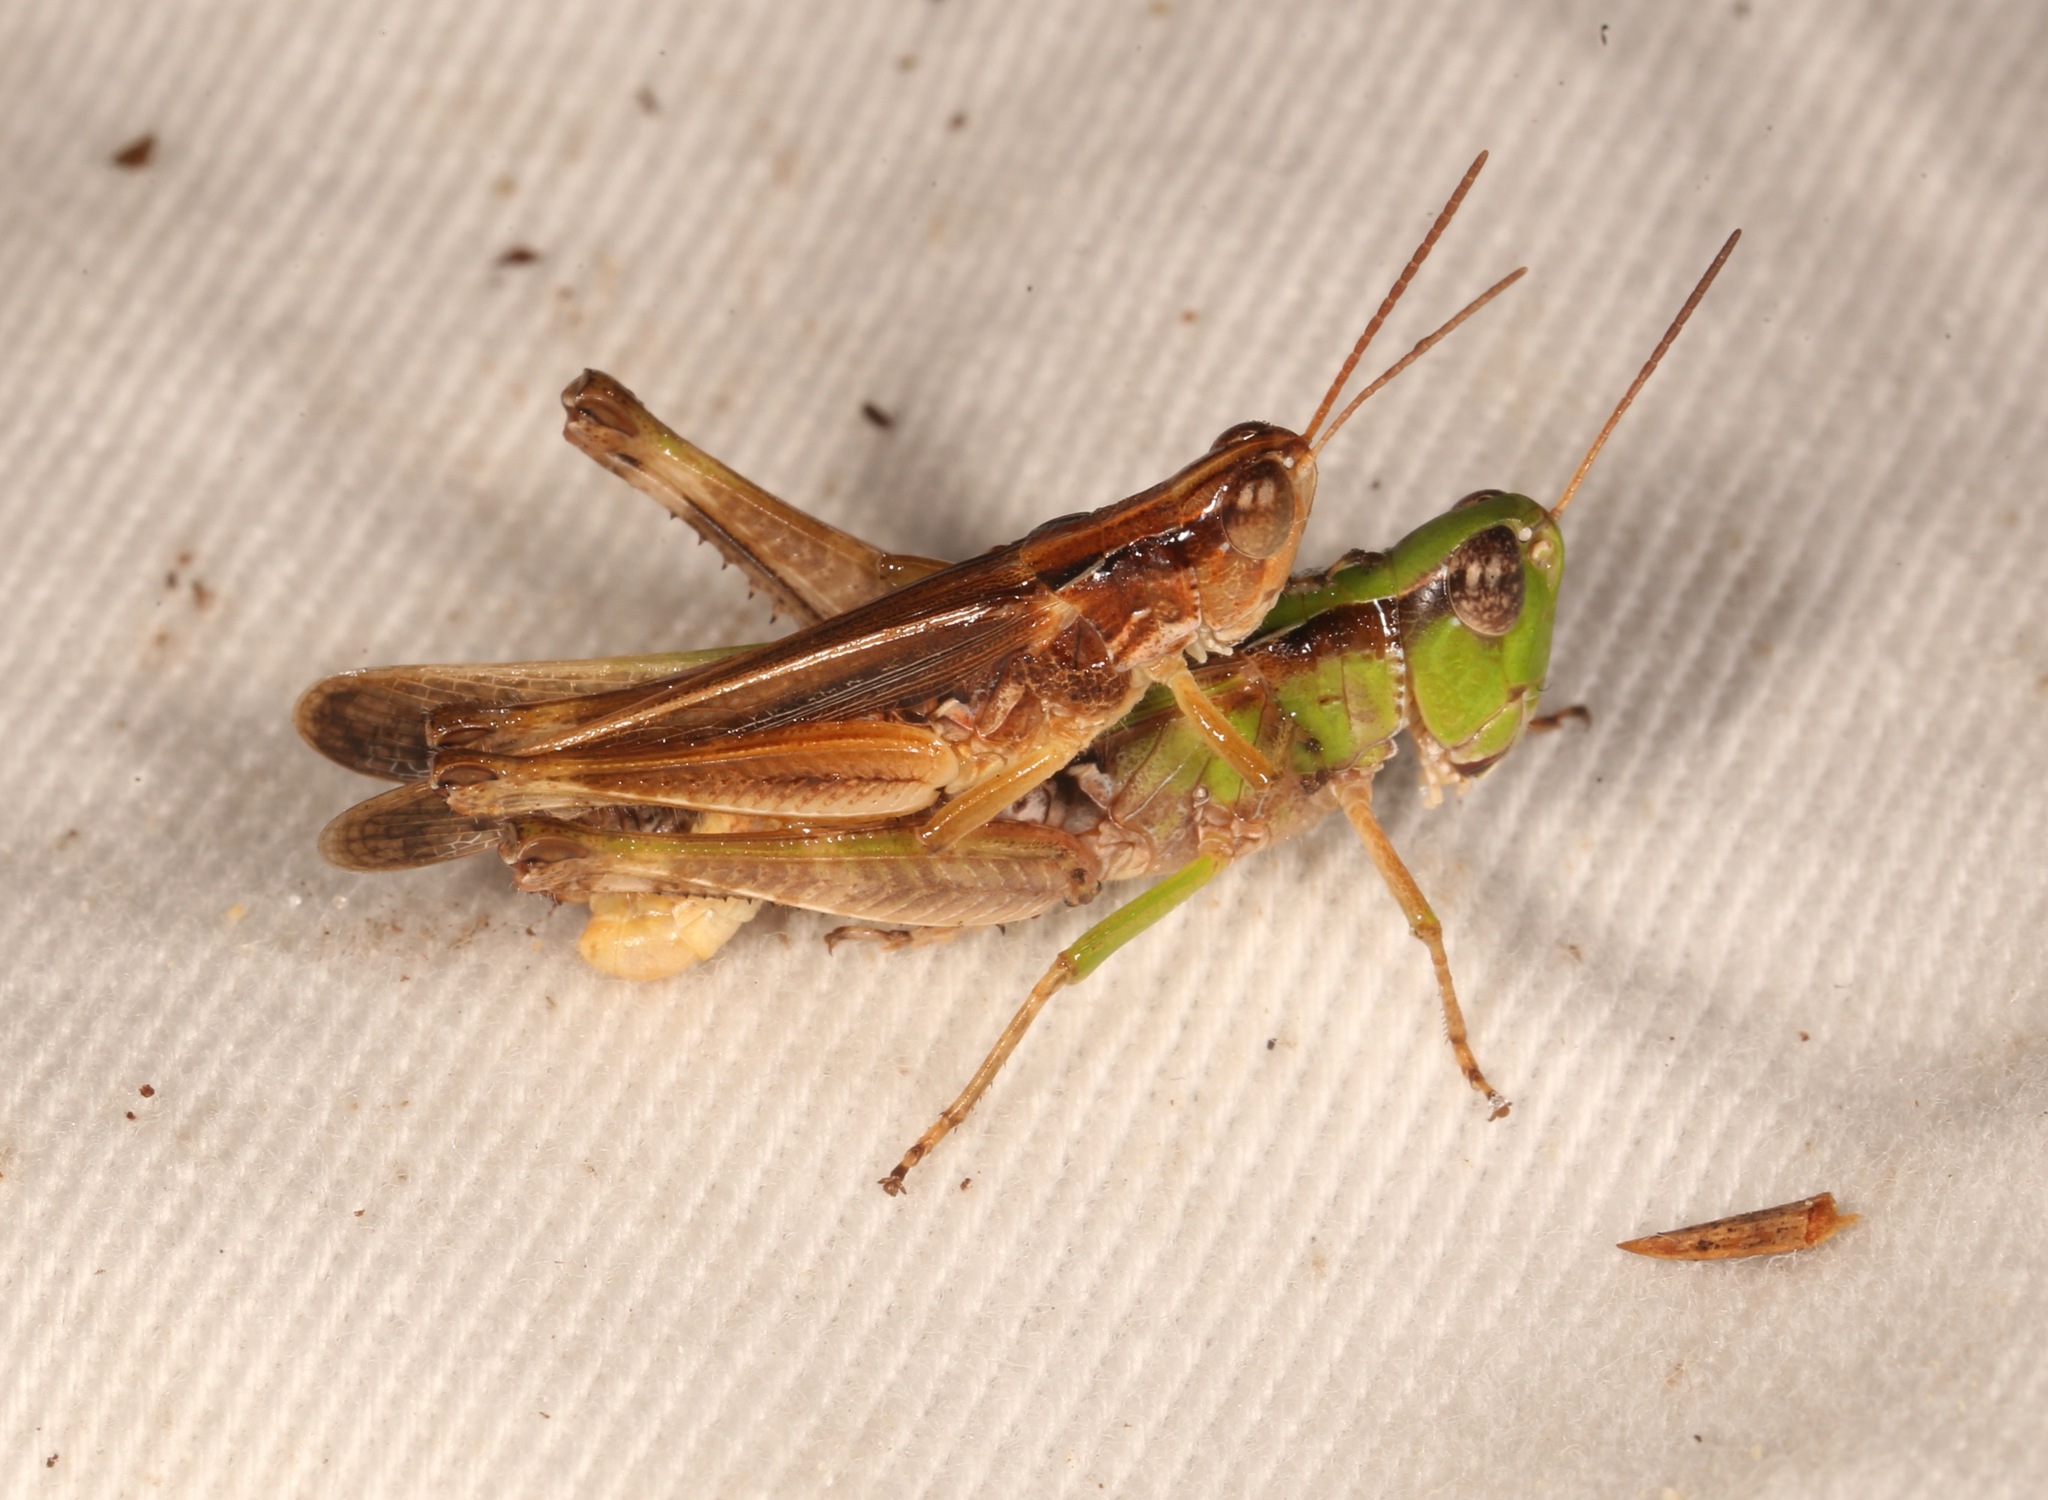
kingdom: Animalia
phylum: Arthropoda
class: Insecta
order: Orthoptera
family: Acrididae
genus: Orphulella
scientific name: Orphulella pelidna
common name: Spotted-wing grasshopper
